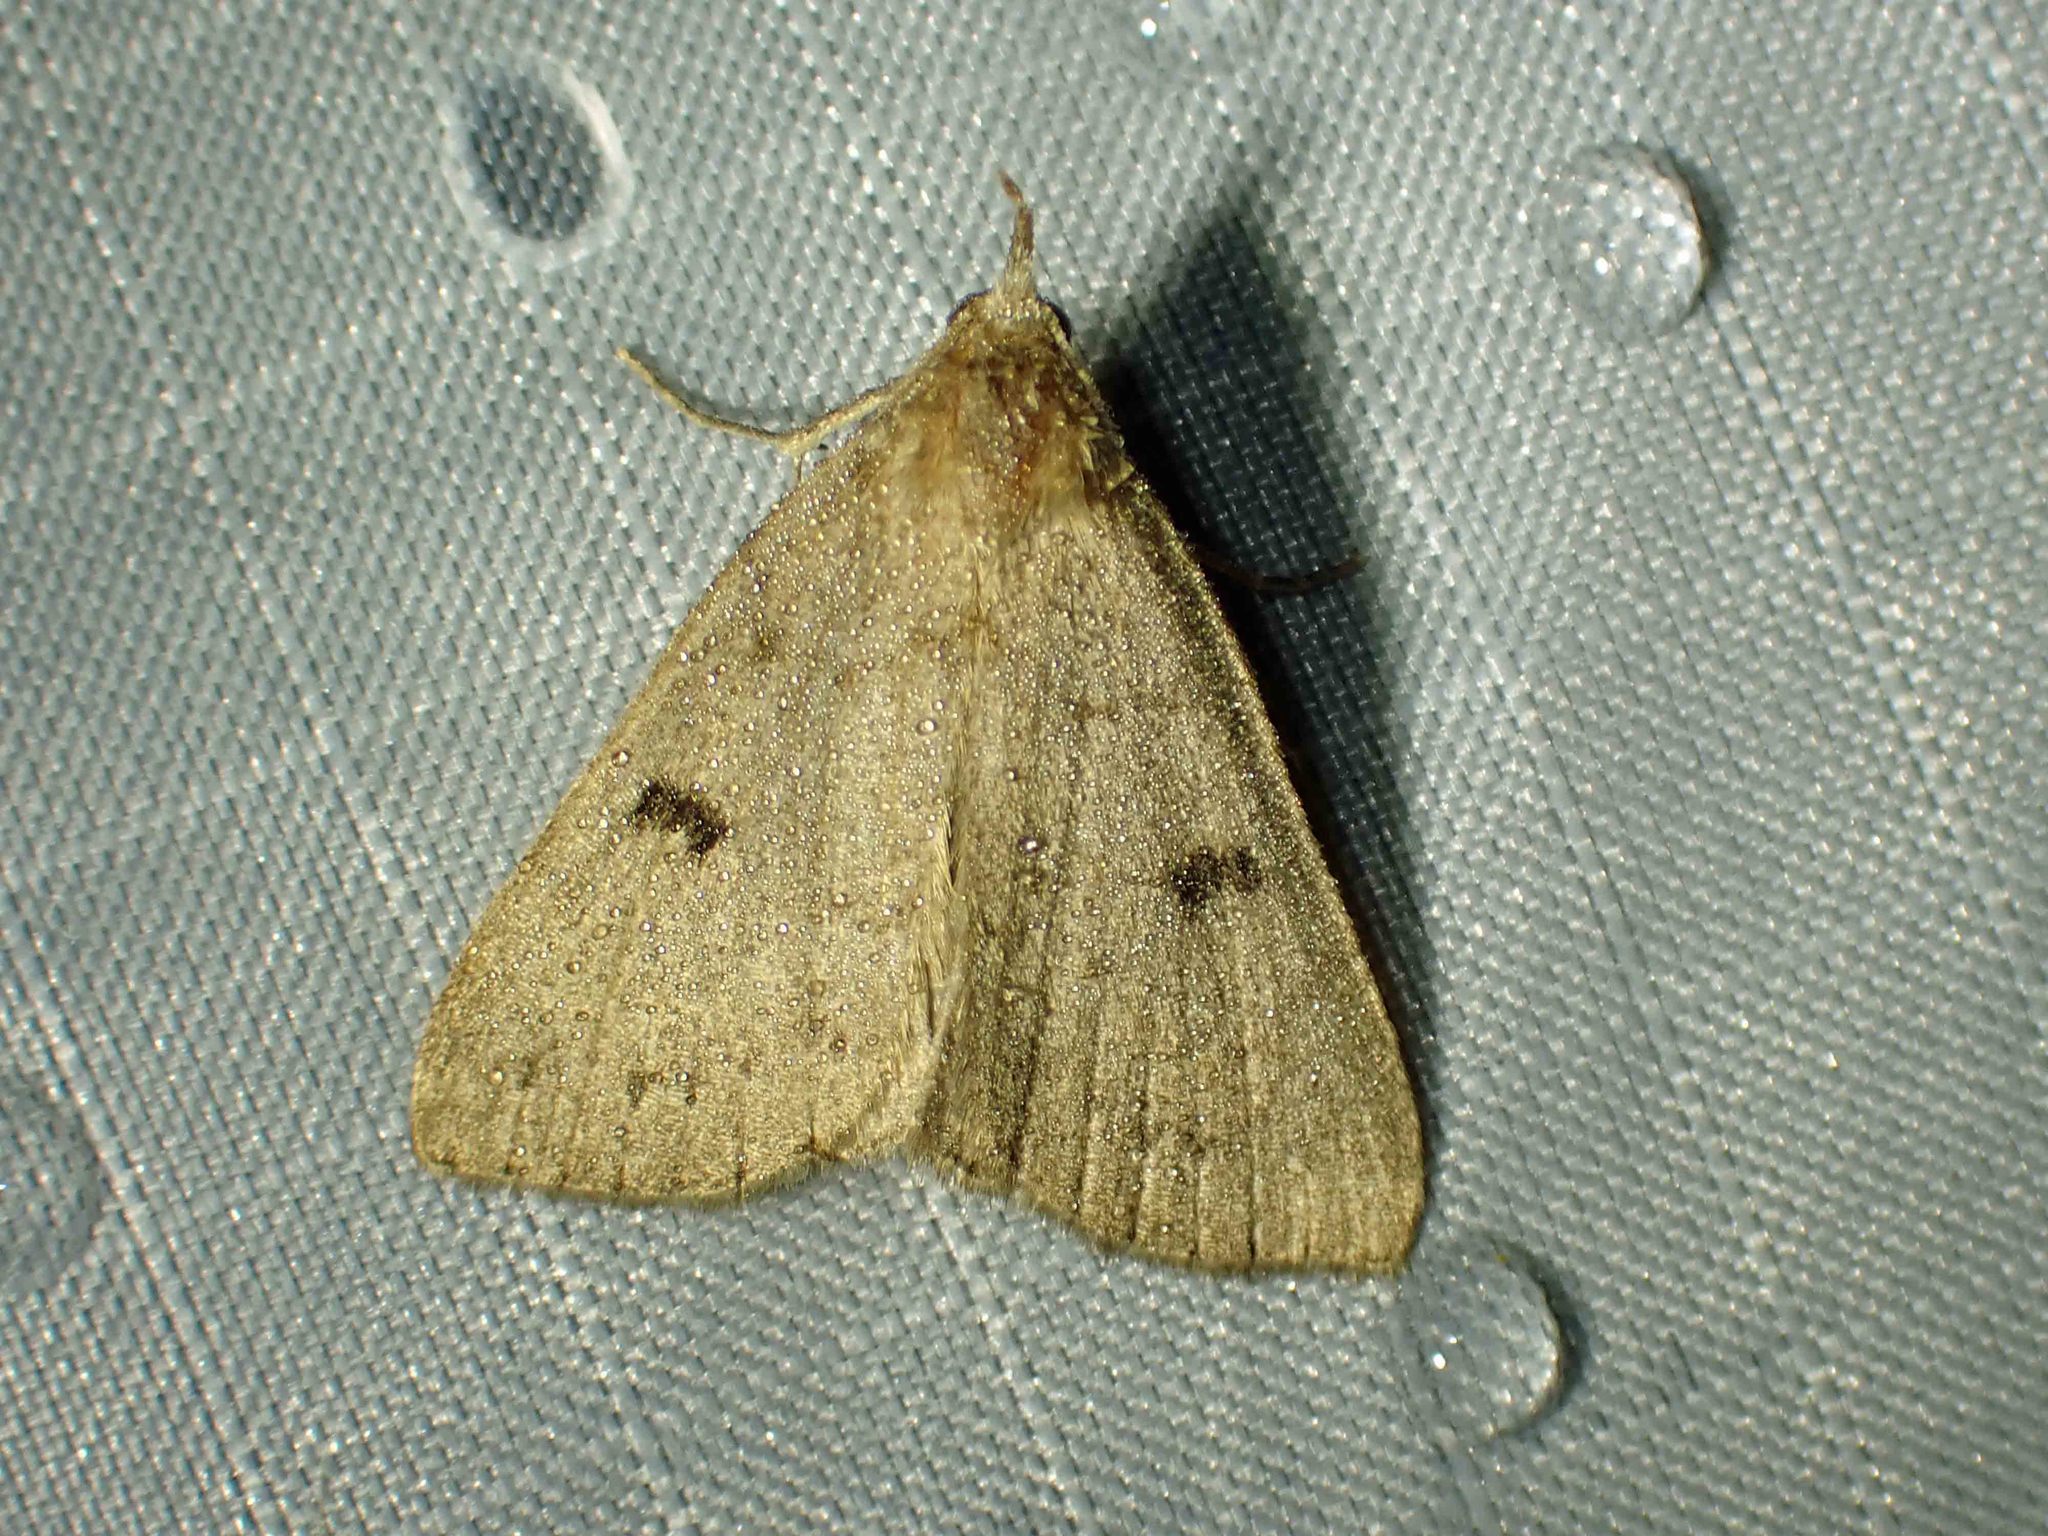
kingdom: Animalia
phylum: Arthropoda
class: Insecta
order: Lepidoptera
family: Erebidae
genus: Macrochilo
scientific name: Macrochilo morbidalis
